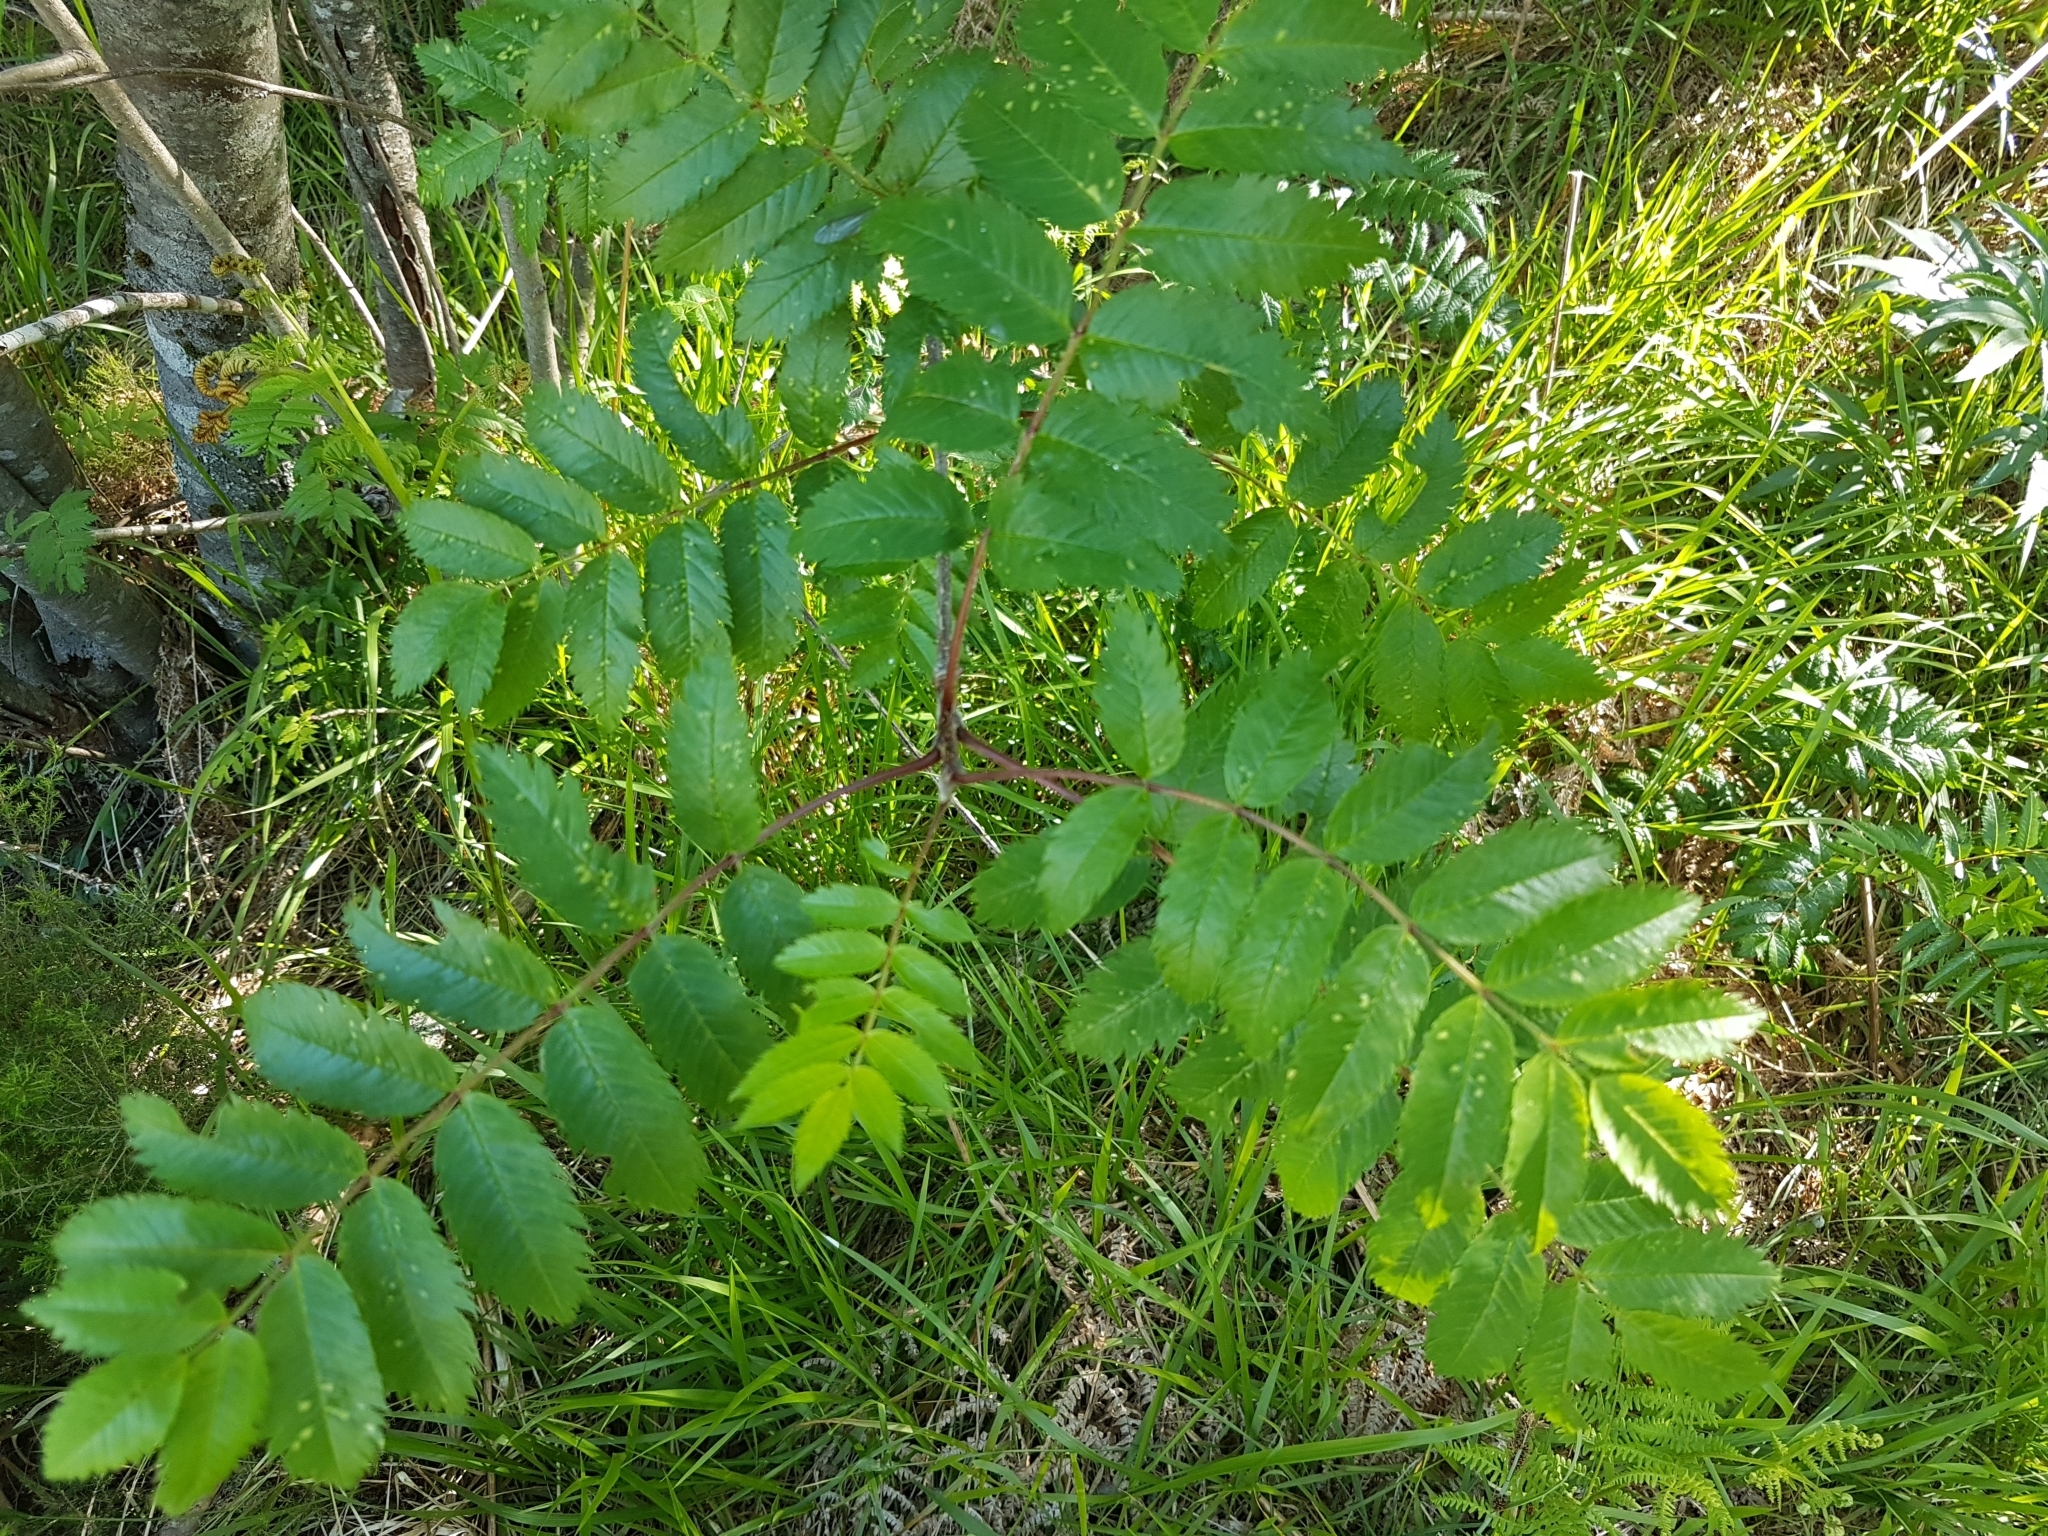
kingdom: Plantae
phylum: Tracheophyta
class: Magnoliopsida
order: Rosales
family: Rosaceae
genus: Sorbus
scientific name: Sorbus aucuparia
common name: Rowan
